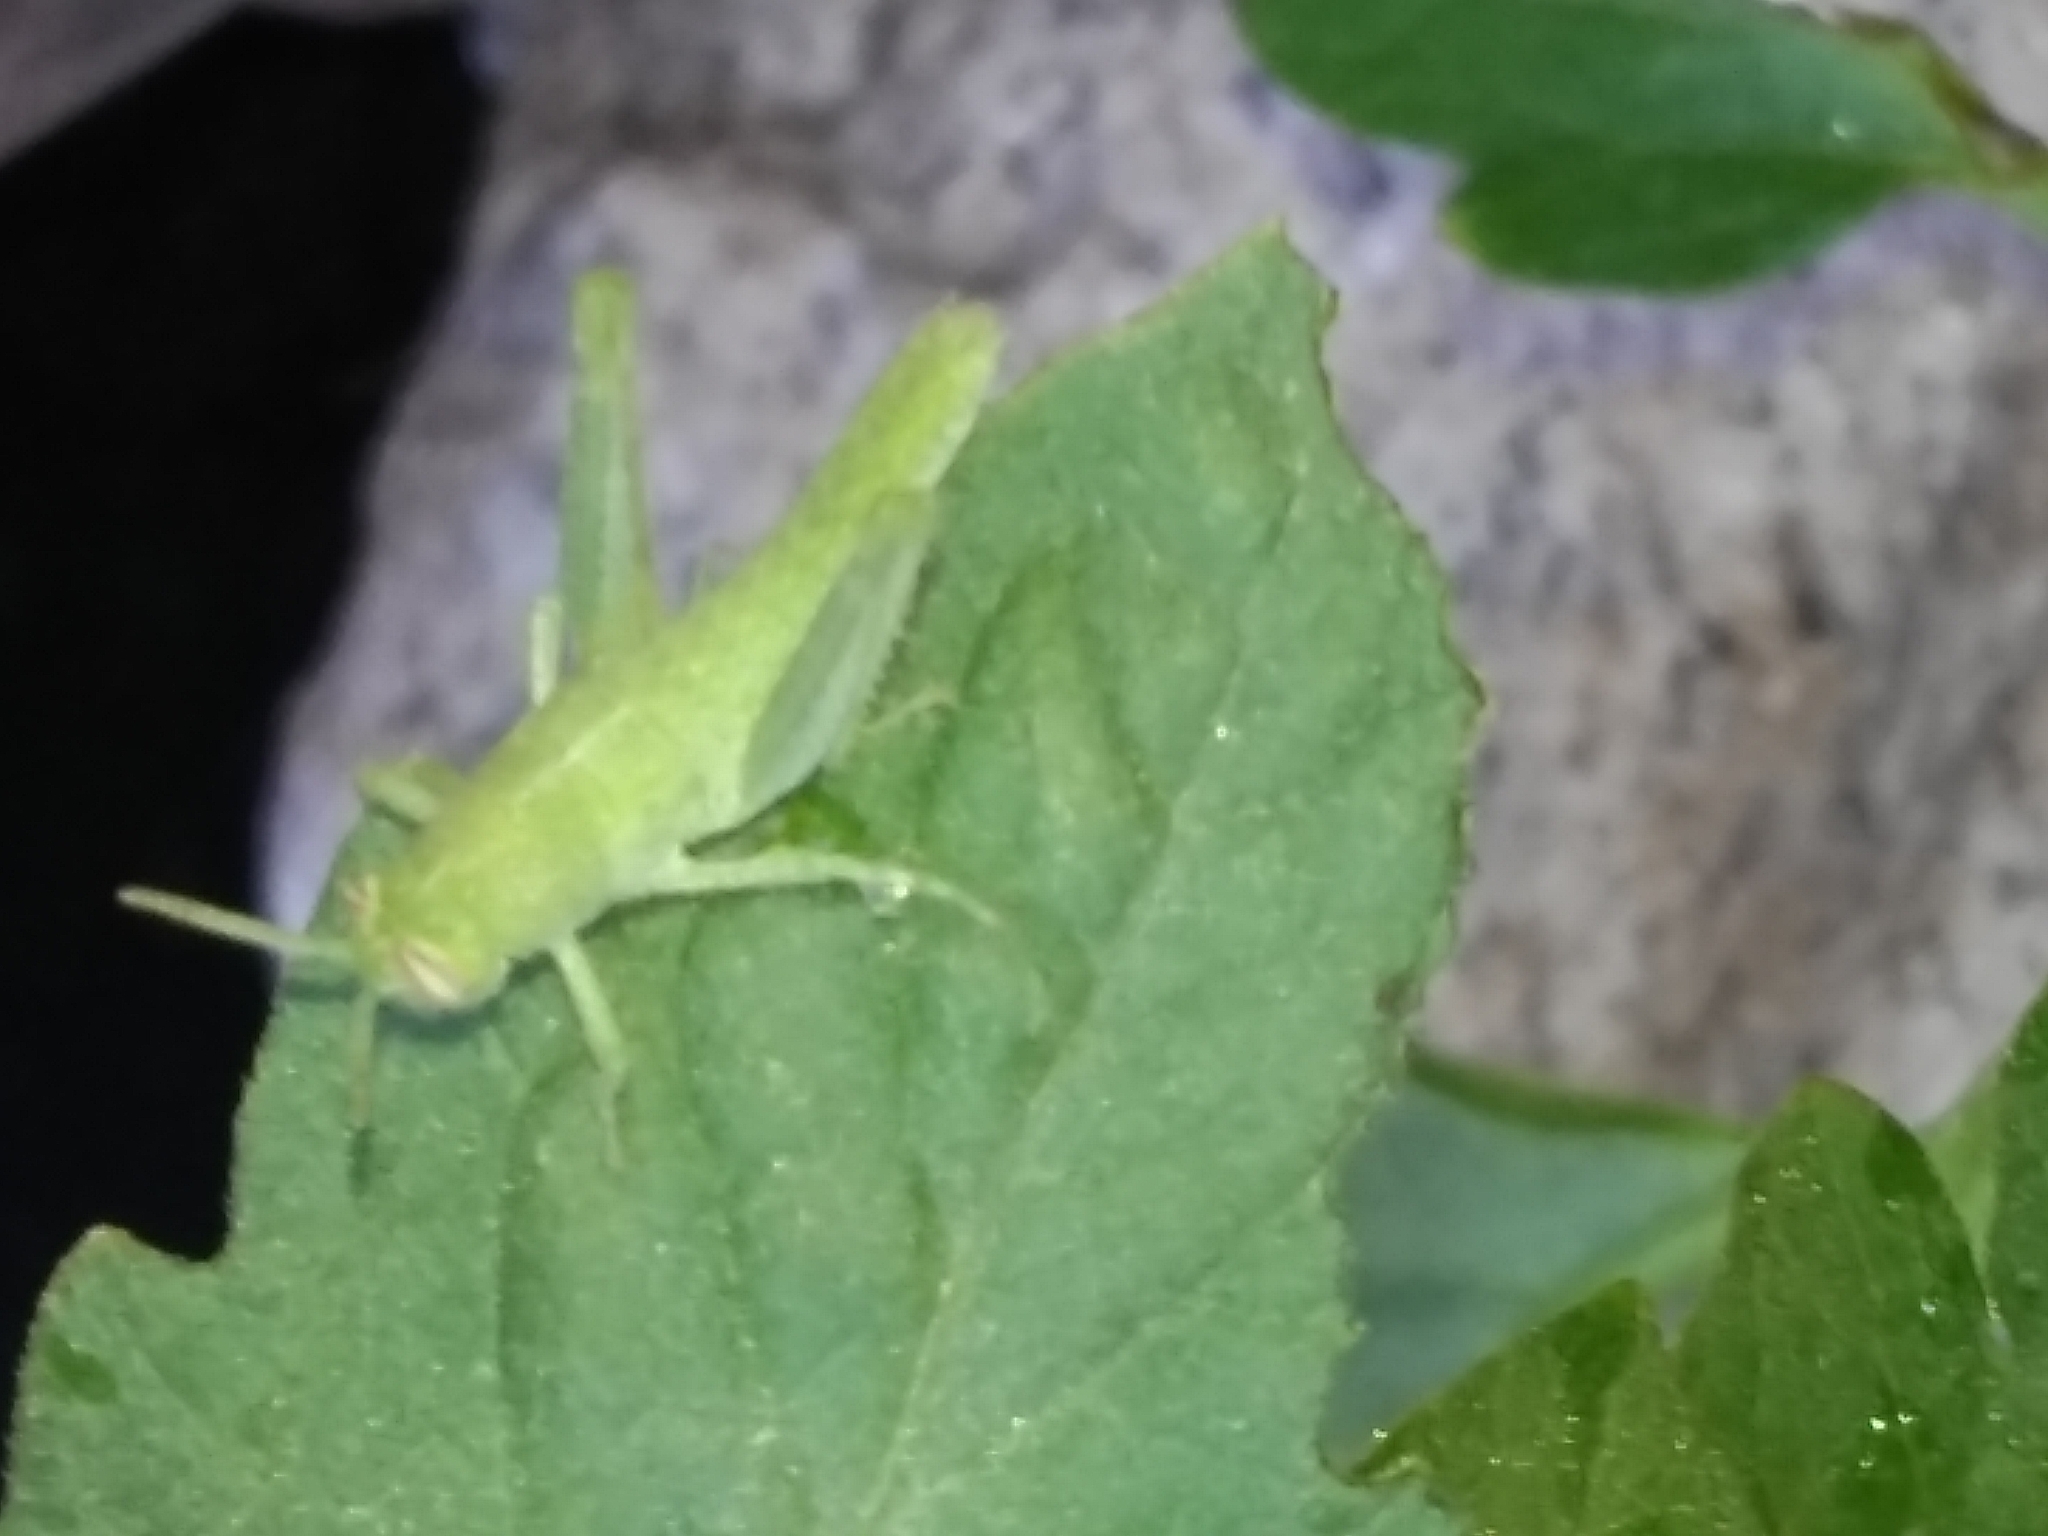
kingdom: Animalia
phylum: Arthropoda
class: Insecta
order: Orthoptera
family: Acrididae
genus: Schistocerca
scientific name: Schistocerca nitens
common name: Vagrant grasshopper
